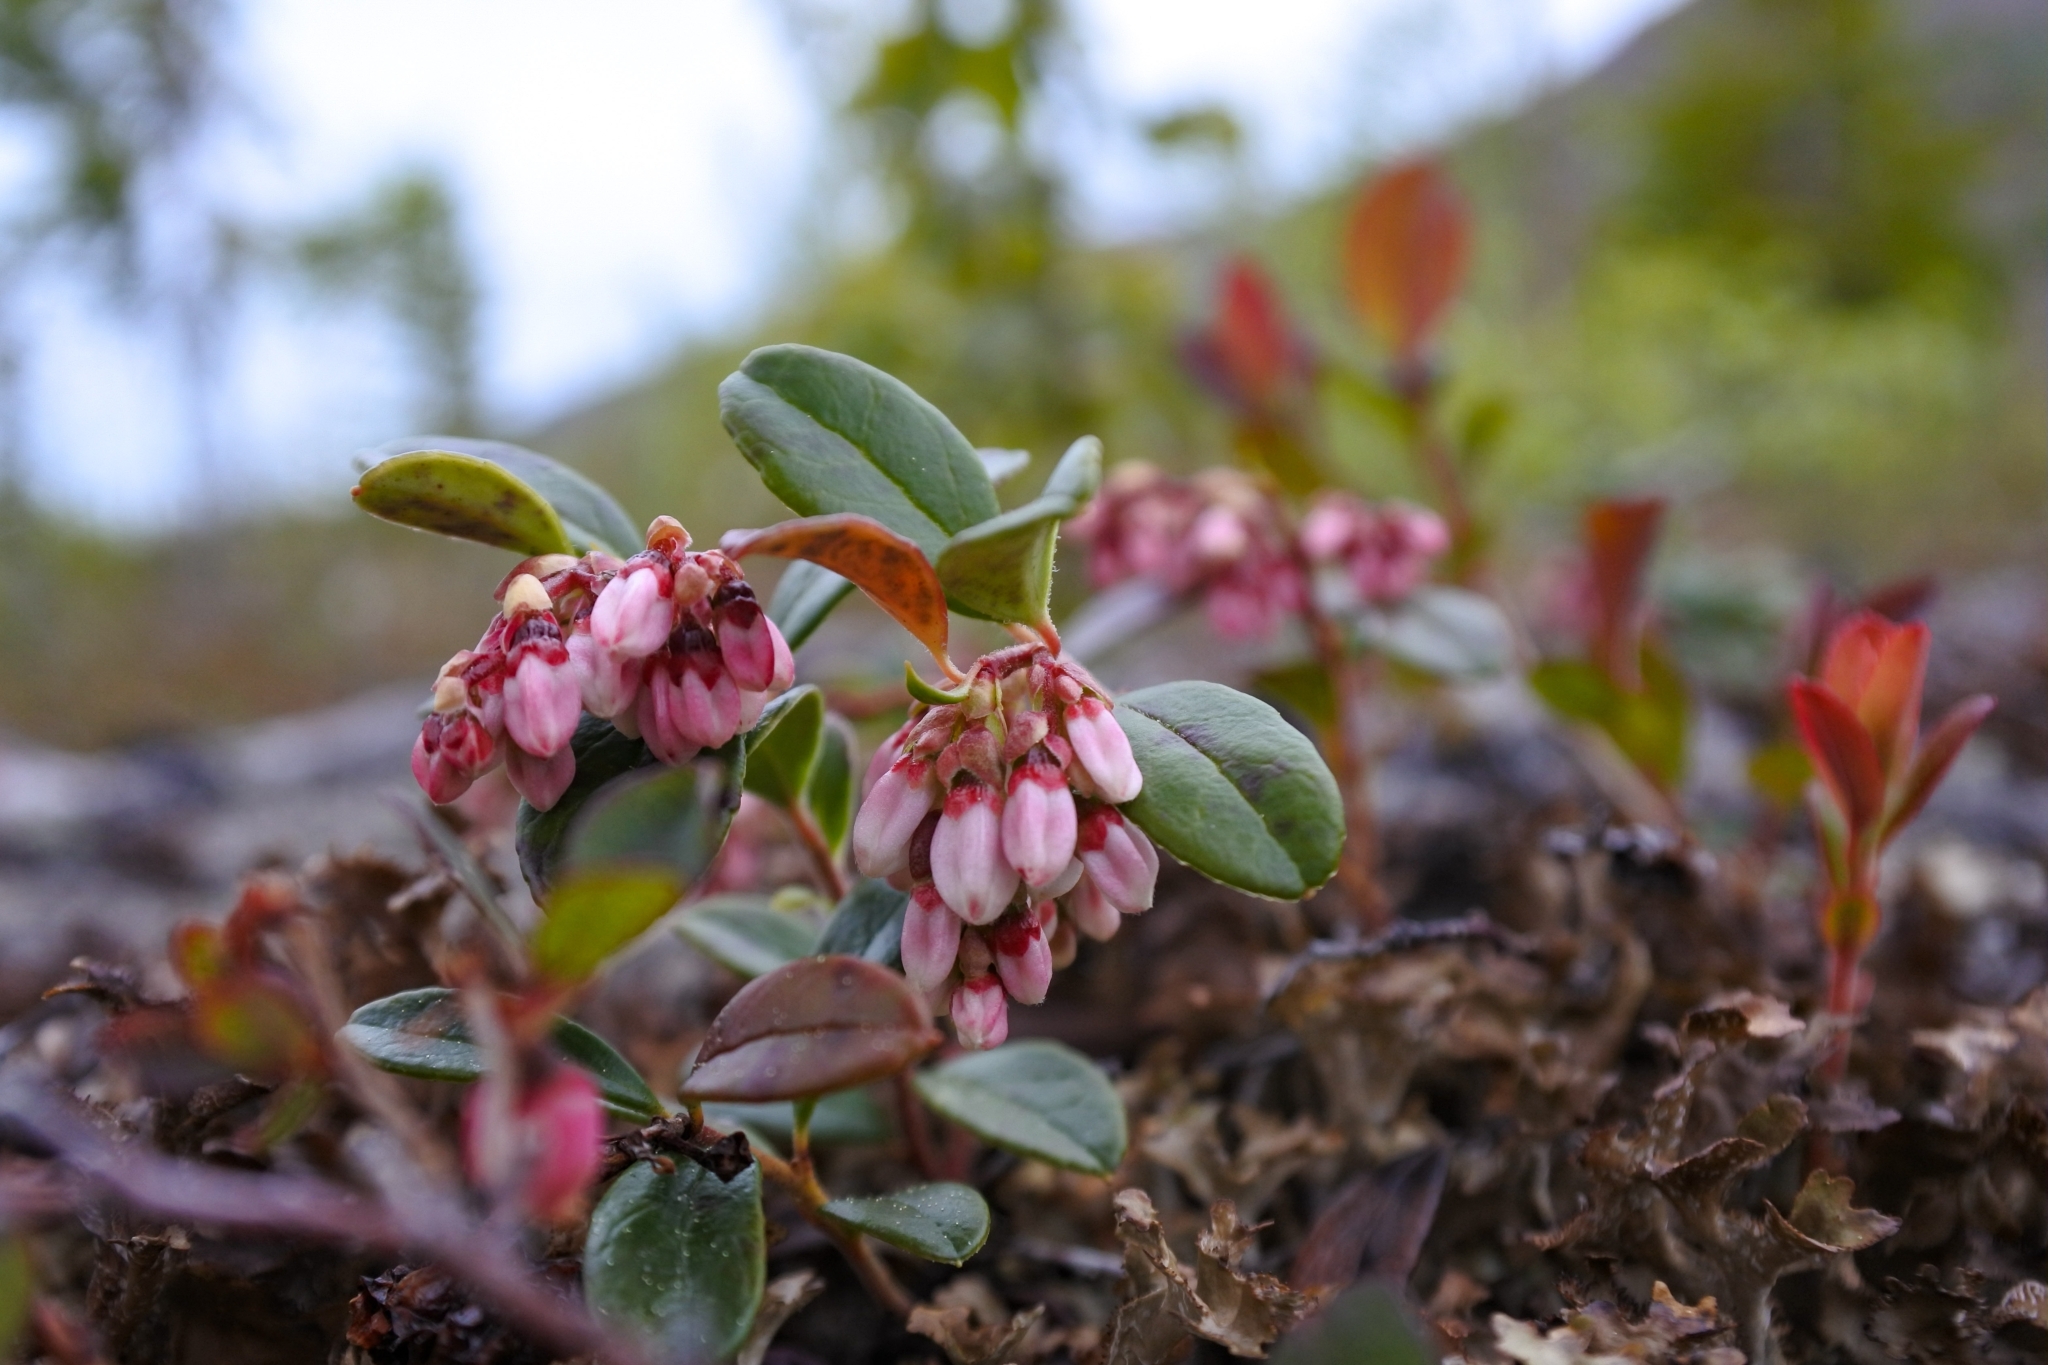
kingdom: Plantae
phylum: Tracheophyta
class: Magnoliopsida
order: Ericales
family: Ericaceae
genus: Vaccinium
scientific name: Vaccinium vitis-idaea
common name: Cowberry
